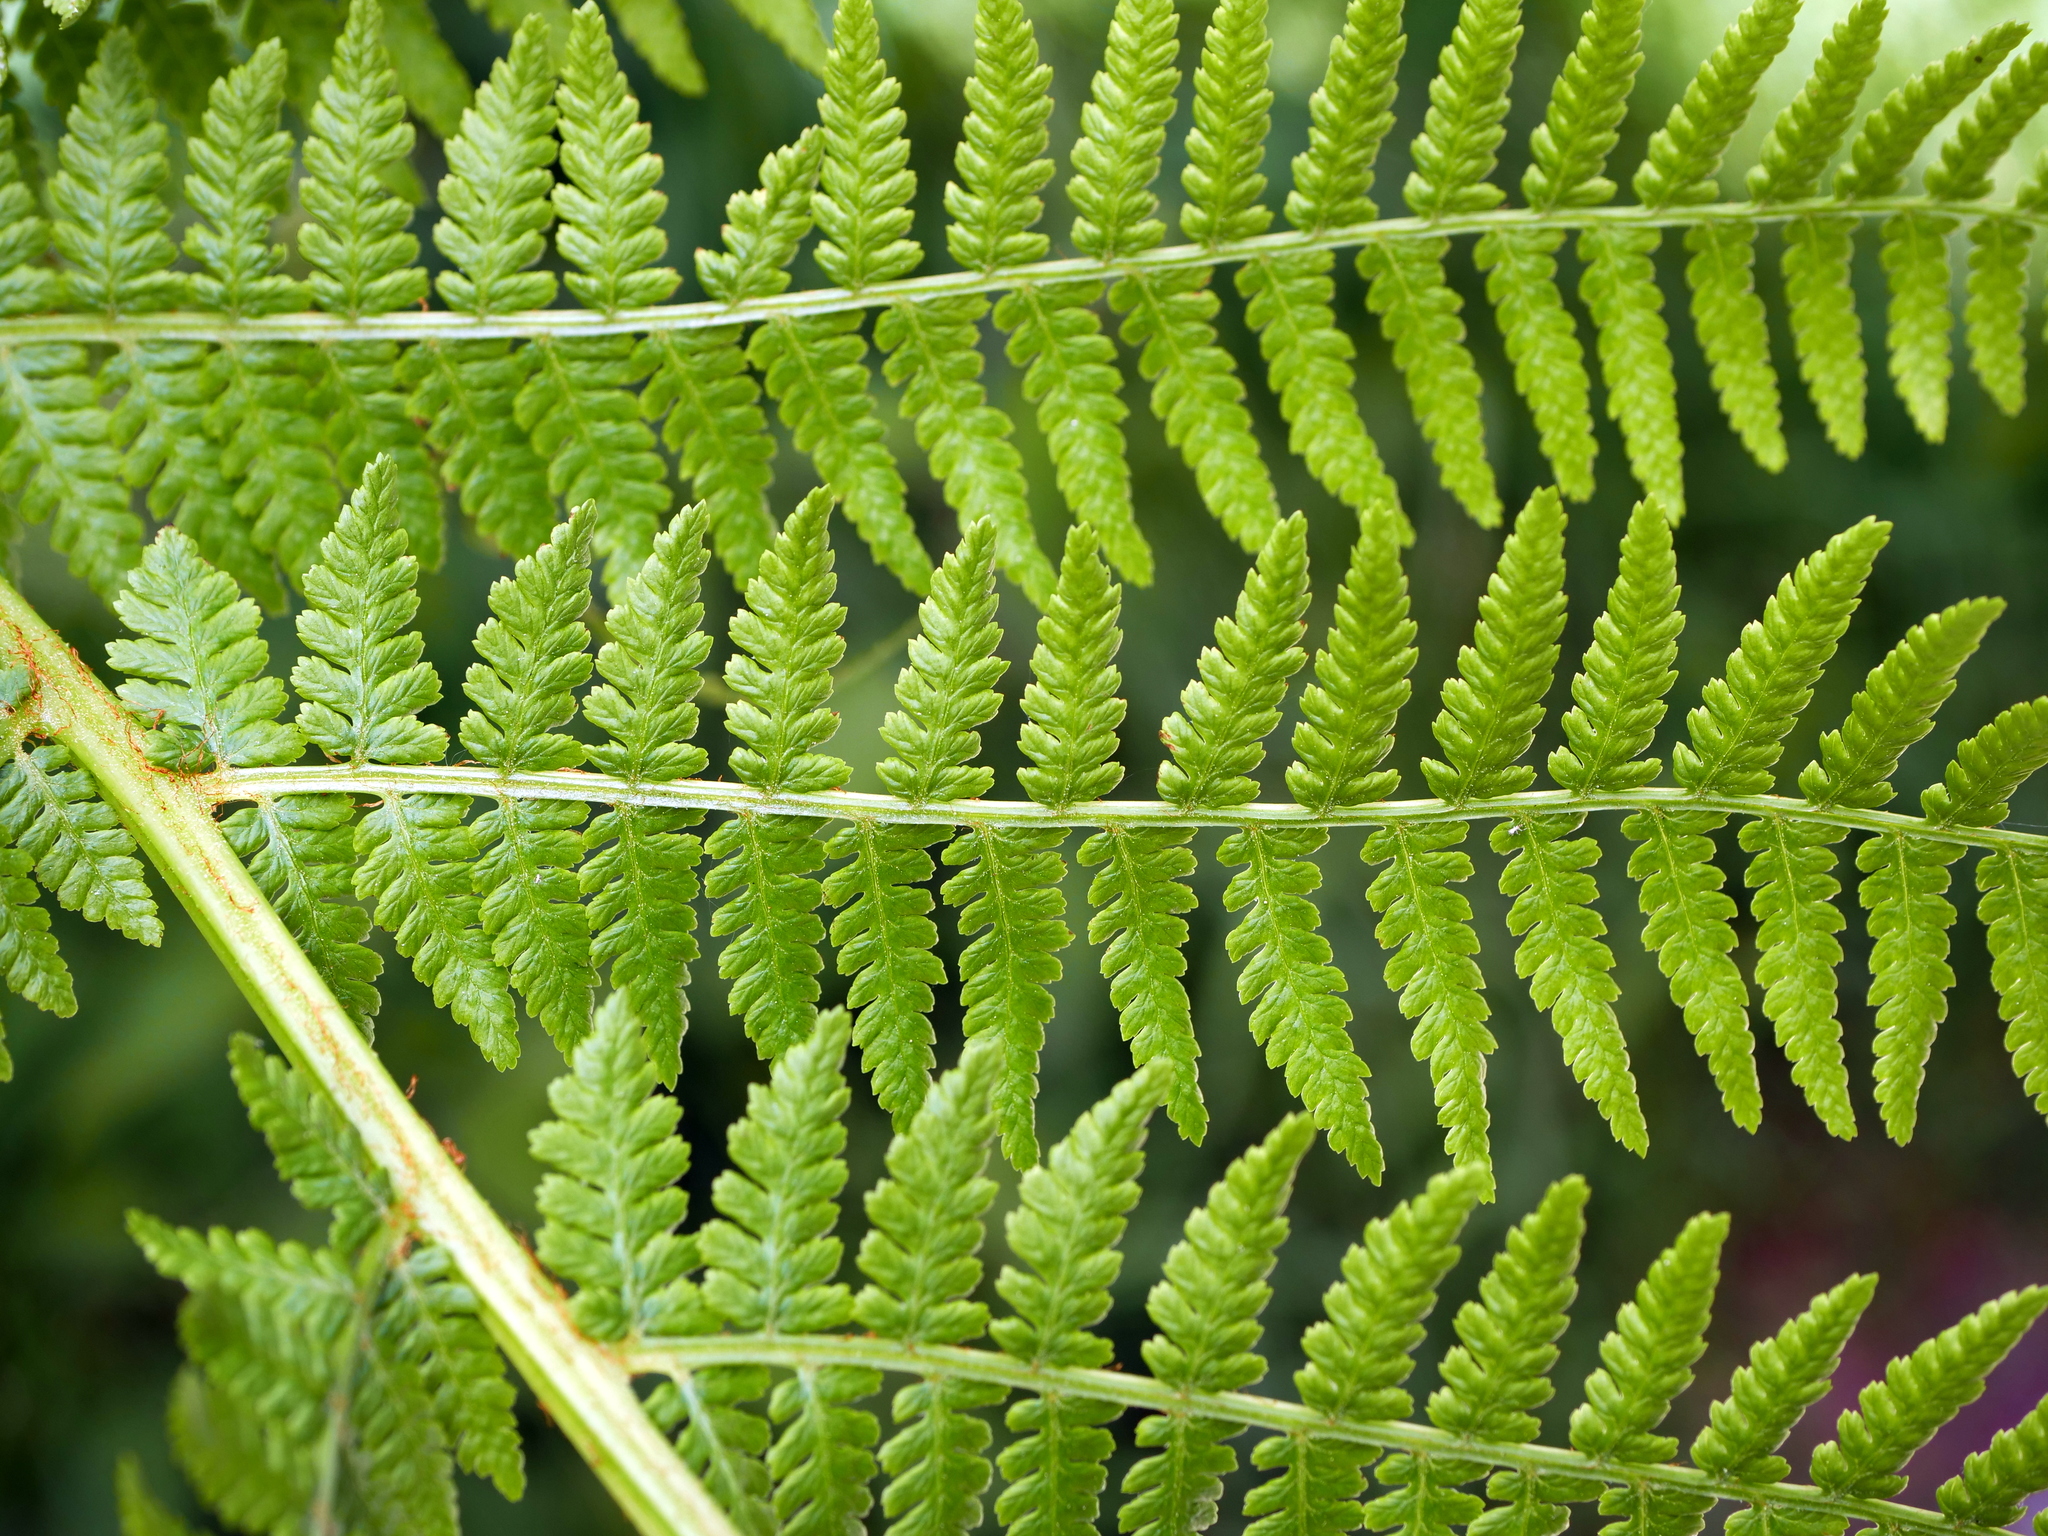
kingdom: Plantae
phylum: Tracheophyta
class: Polypodiopsida
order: Polypodiales
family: Athyriaceae
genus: Athyrium
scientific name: Athyrium filix-femina
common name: Lady fern
